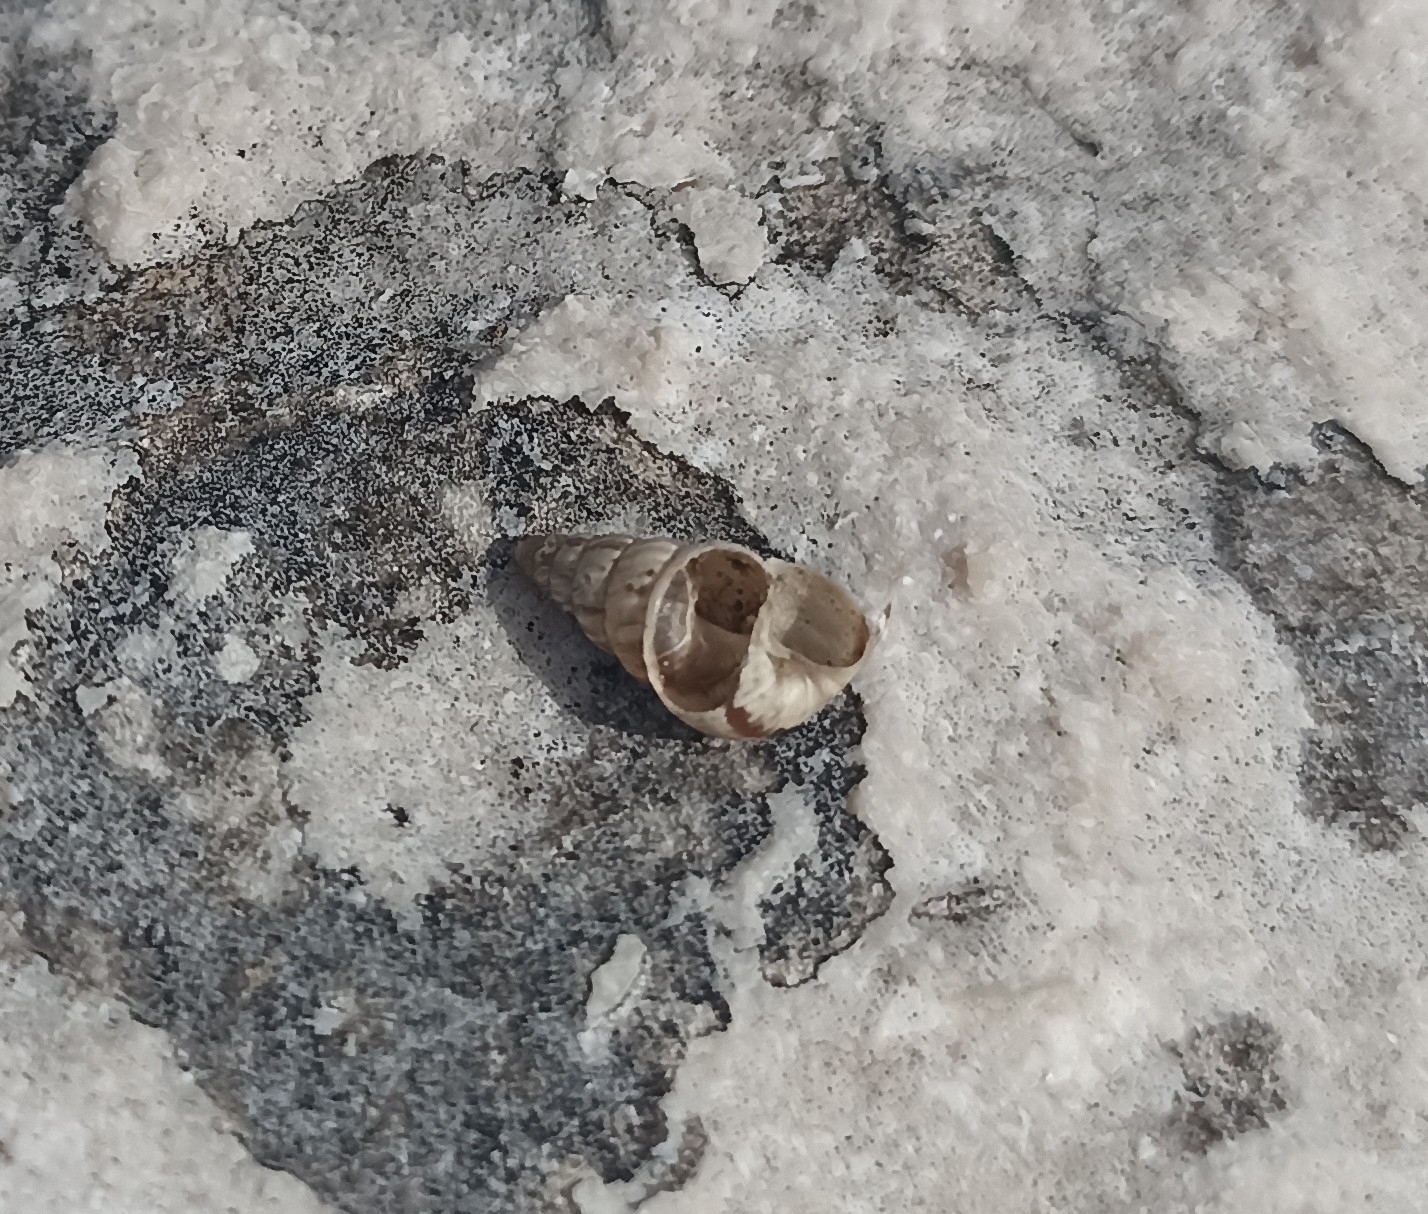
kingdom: Animalia
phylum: Mollusca
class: Gastropoda
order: Stylommatophora
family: Geomitridae
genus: Cochlicella
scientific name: Cochlicella barbara
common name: Potbellied helicellid
